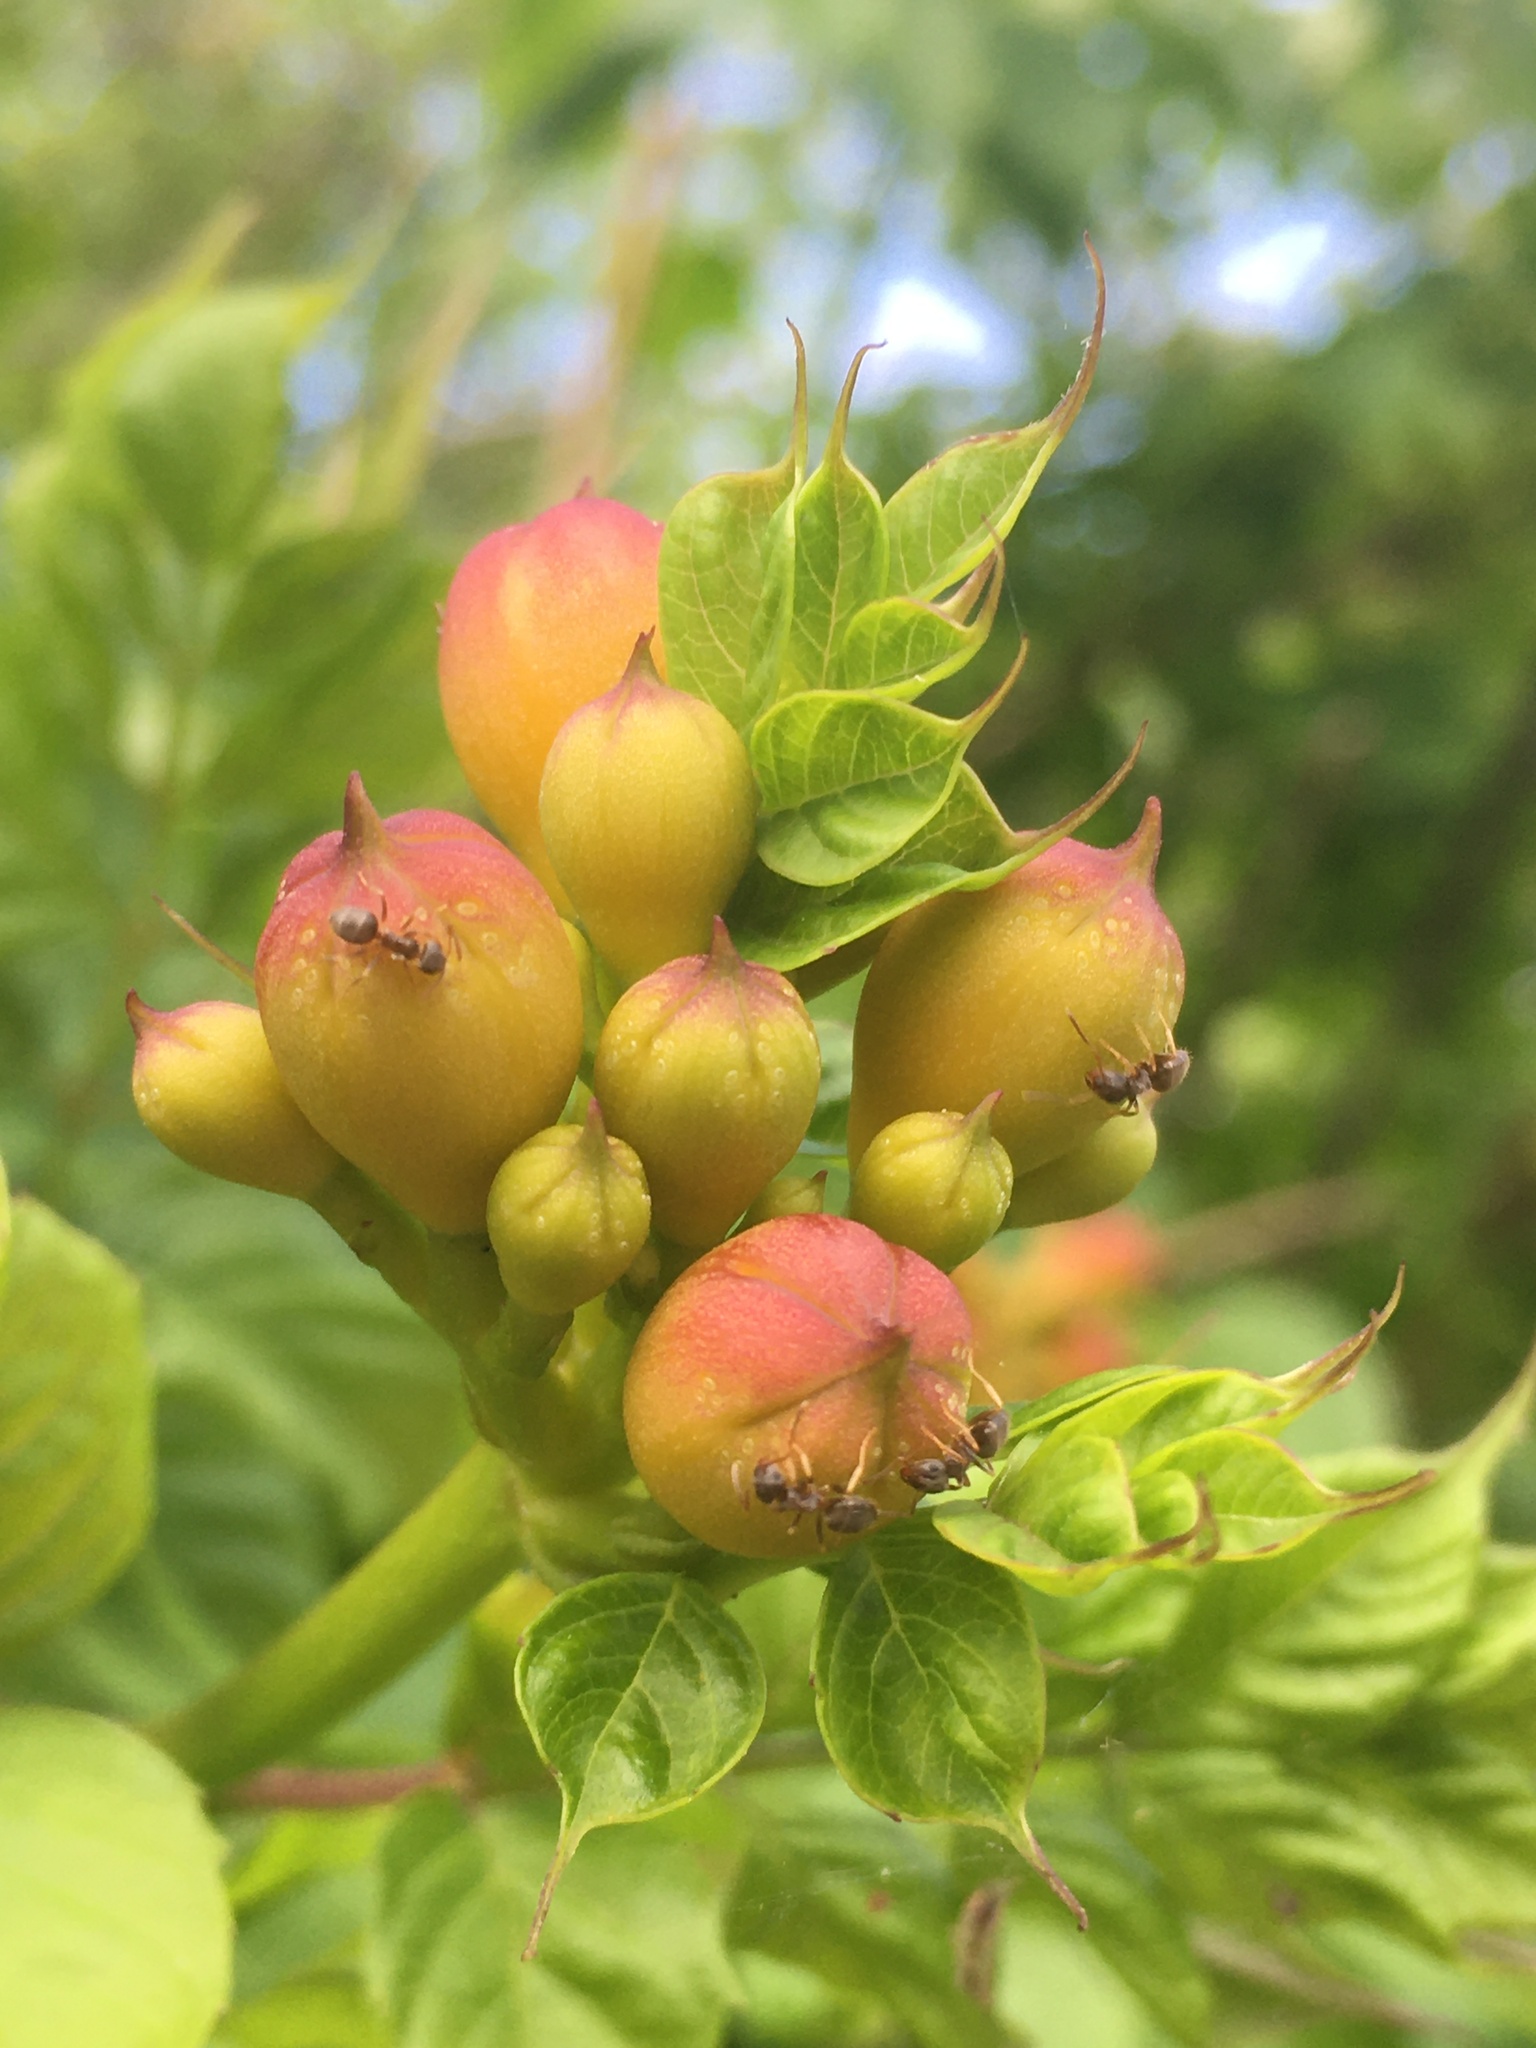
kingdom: Plantae
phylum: Tracheophyta
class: Magnoliopsida
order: Lamiales
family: Bignoniaceae
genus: Campsis
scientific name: Campsis radicans
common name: Trumpet-creeper
